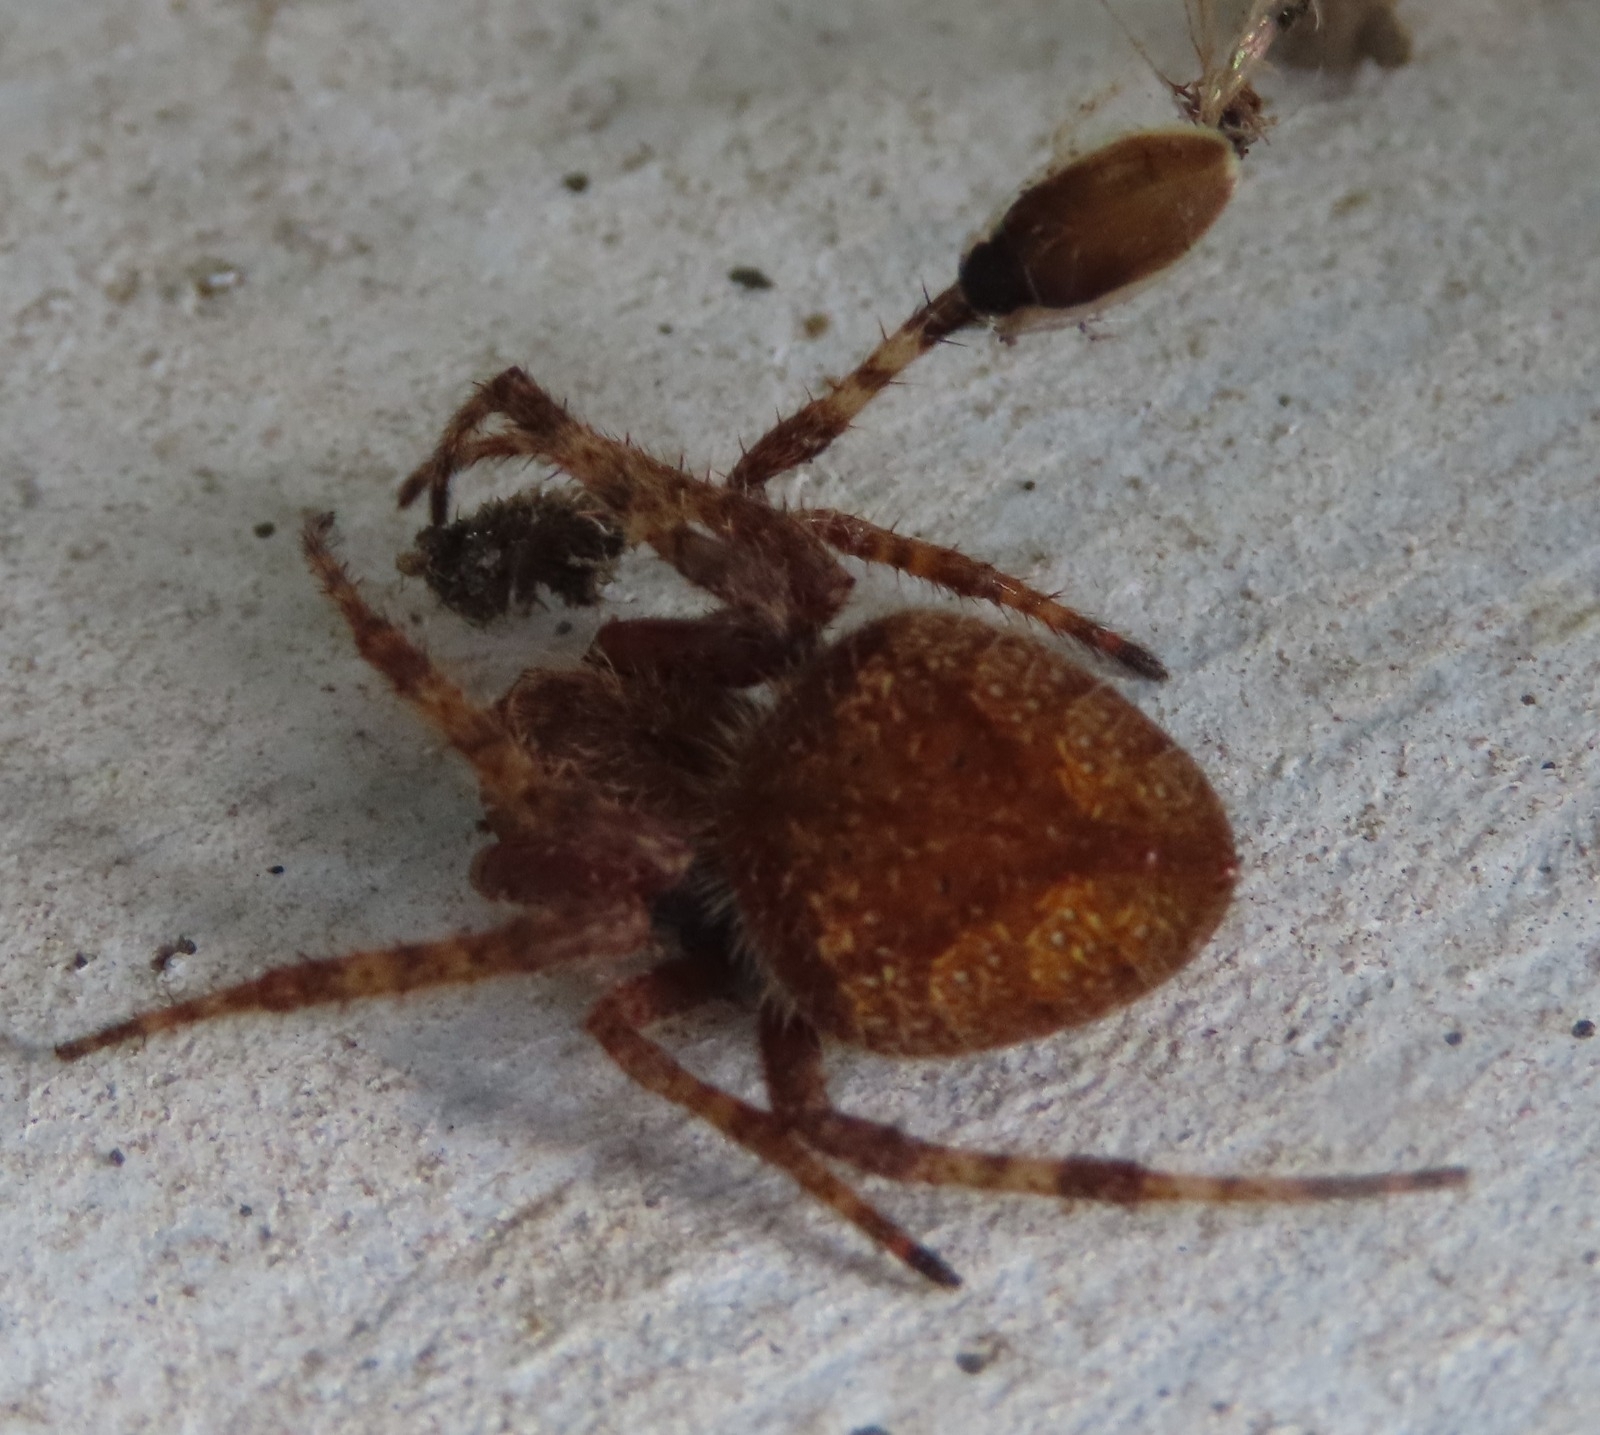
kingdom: Animalia
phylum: Arthropoda
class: Arachnida
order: Araneae
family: Araneidae
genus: Eriophora
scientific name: Eriophora edax
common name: Orb weavers
